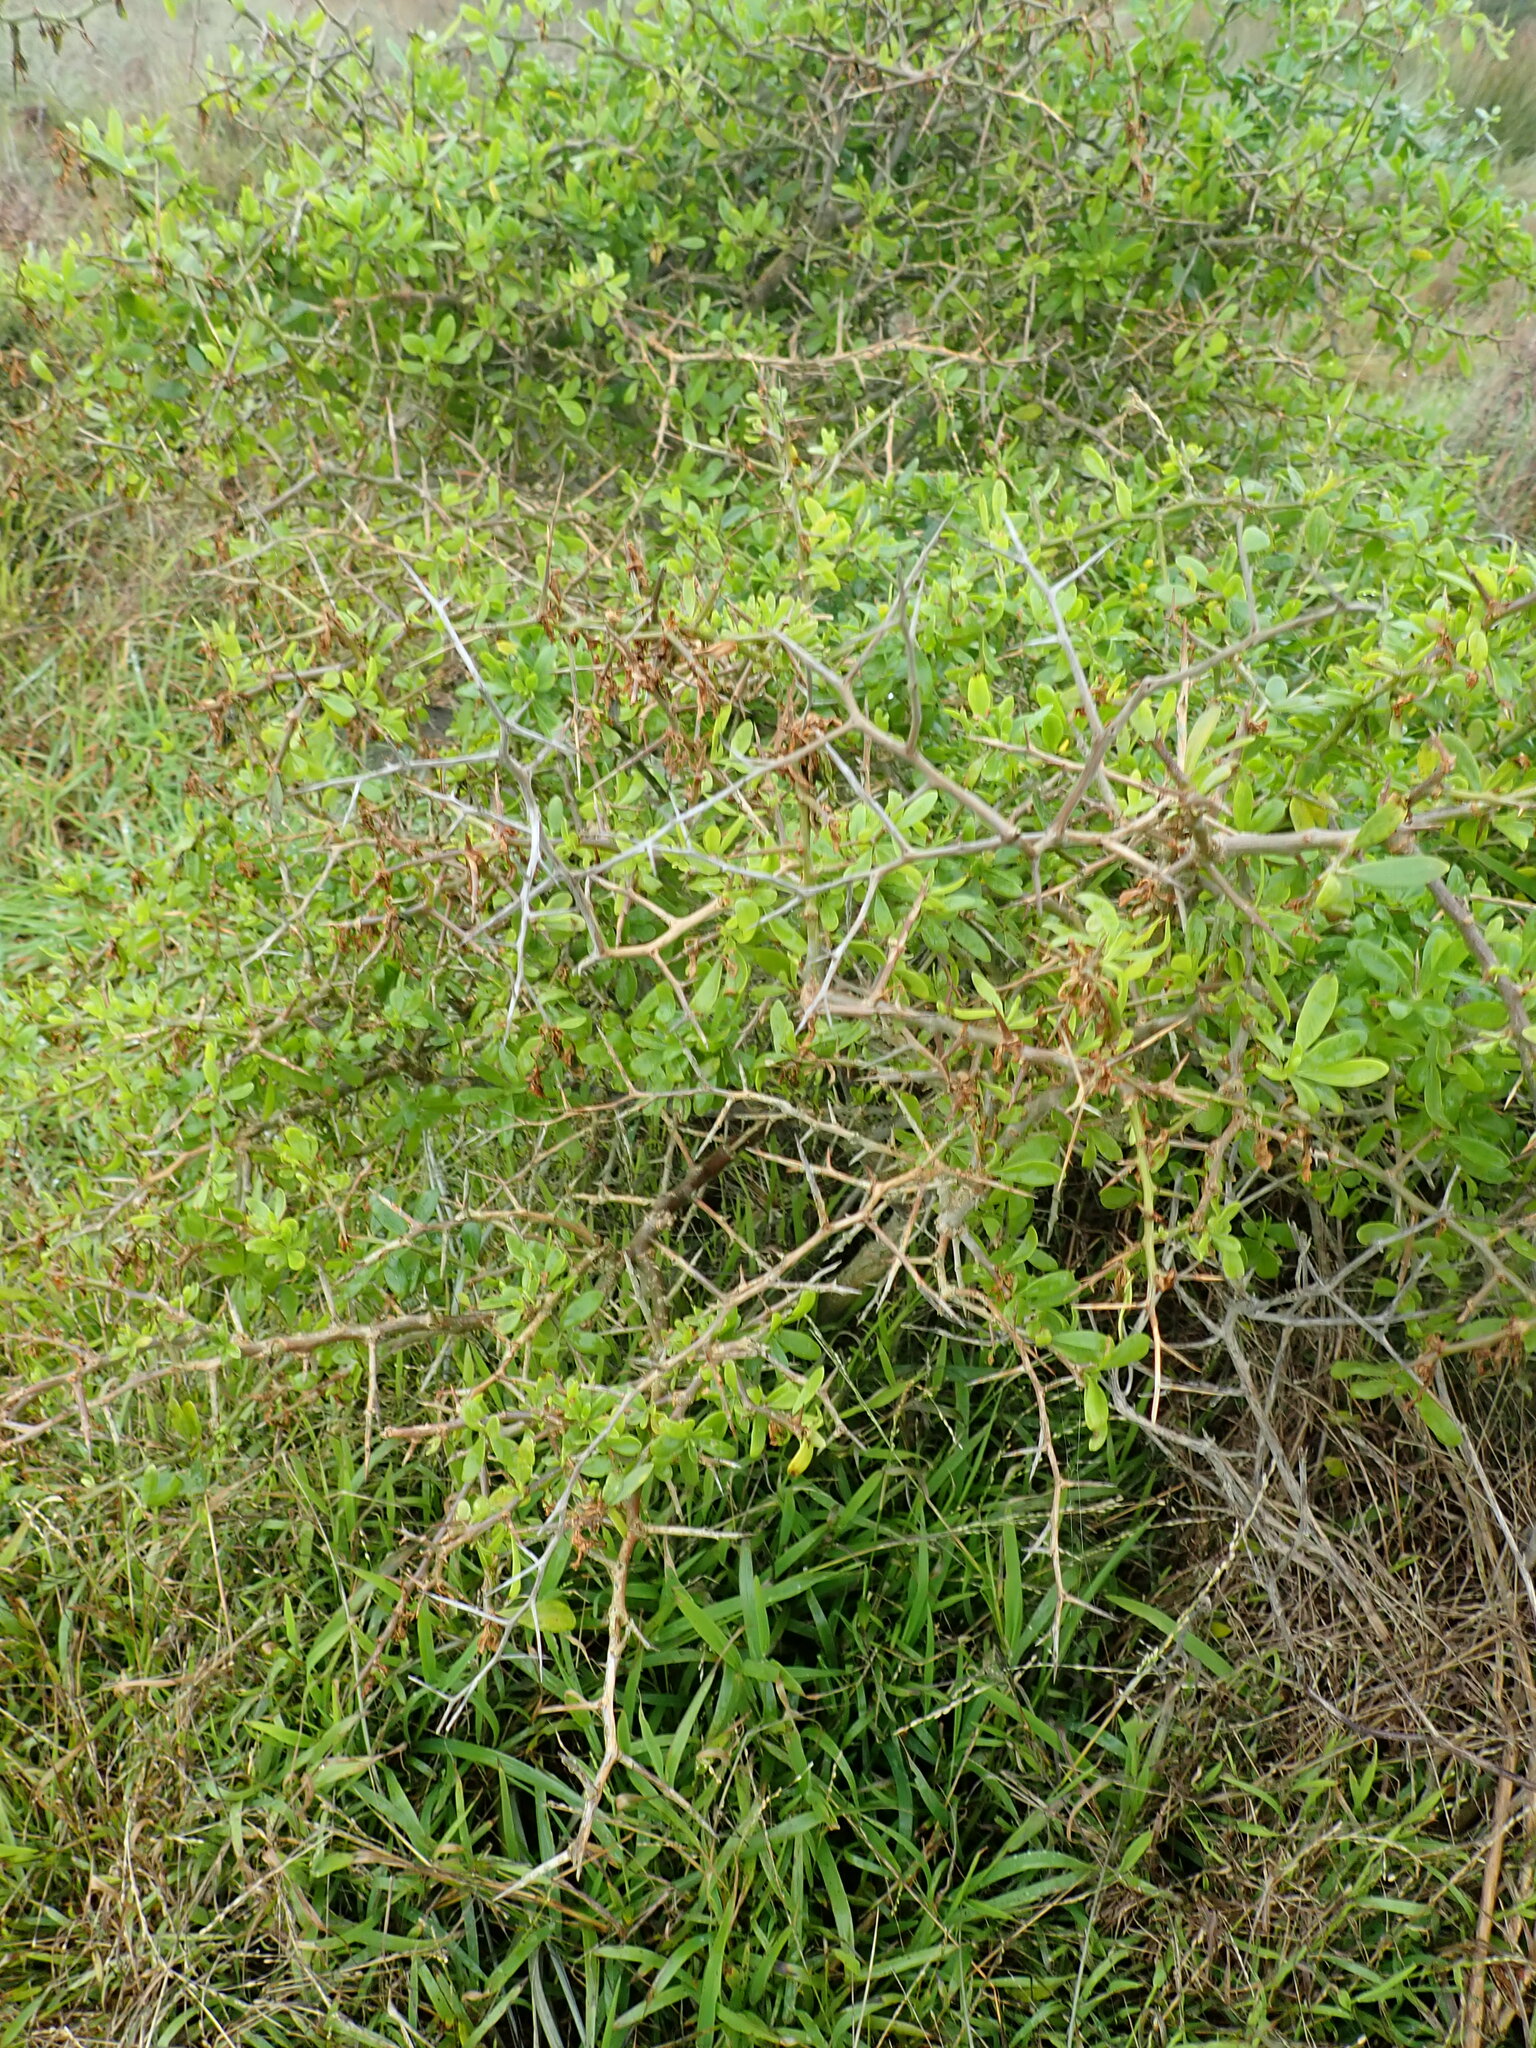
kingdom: Plantae
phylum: Tracheophyta
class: Magnoliopsida
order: Solanales
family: Solanaceae
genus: Lycium
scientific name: Lycium ferocissimum
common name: African boxthorn
